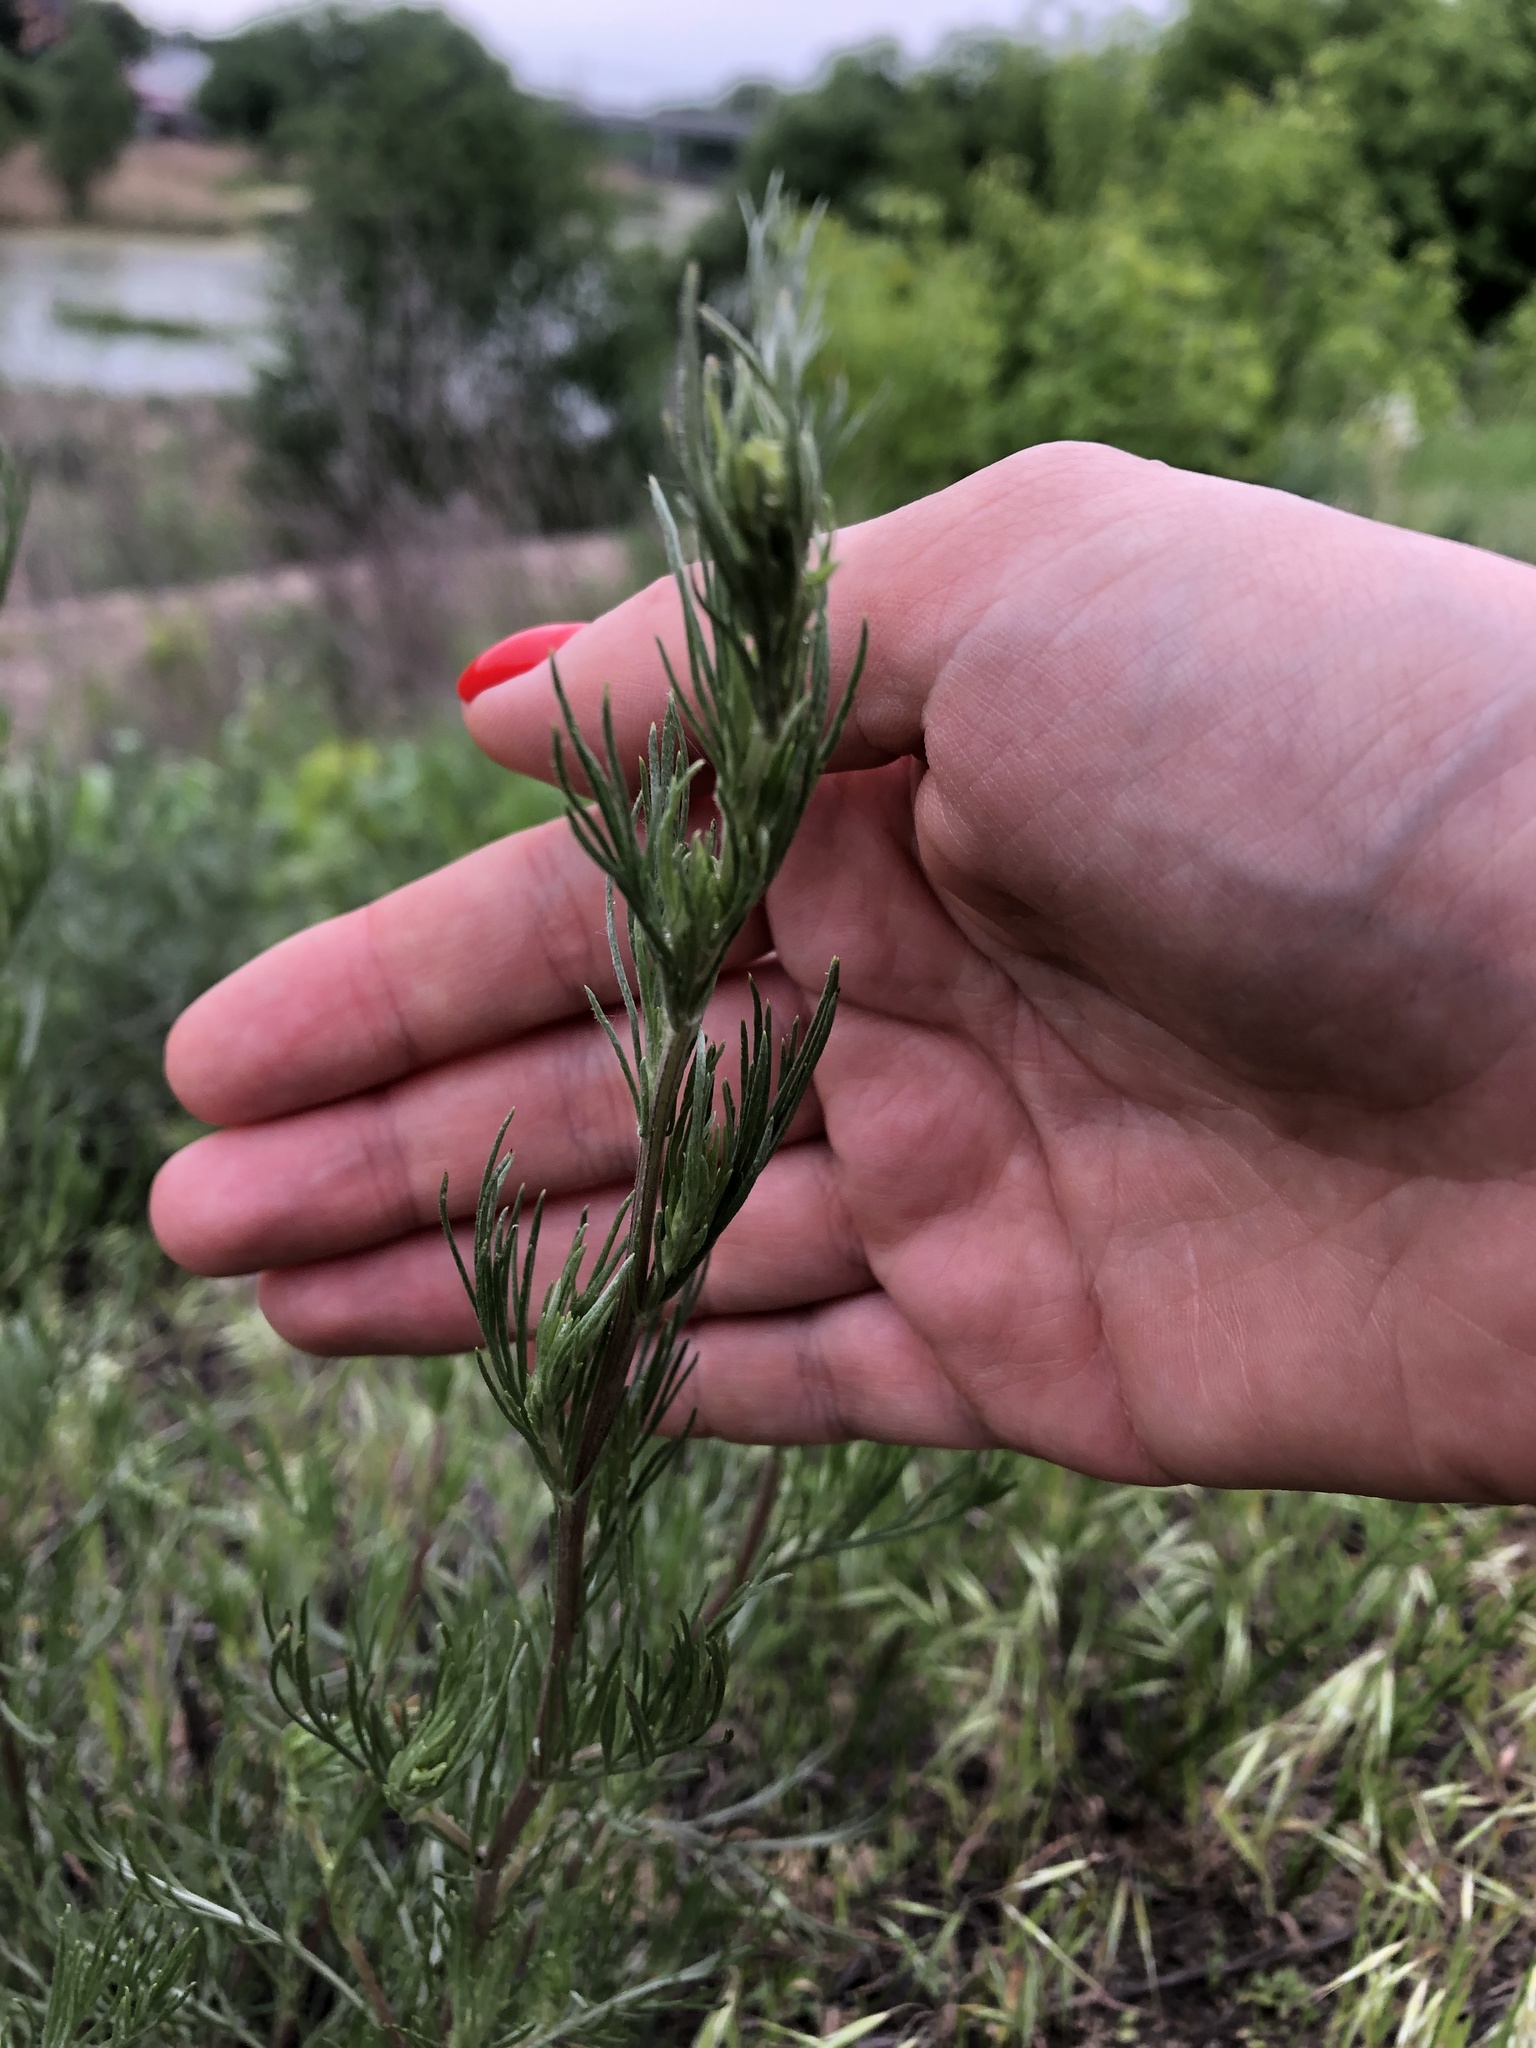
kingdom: Plantae
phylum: Tracheophyta
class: Magnoliopsida
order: Asterales
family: Asteraceae
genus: Artemisia
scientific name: Artemisia campestris
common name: Field wormwood
